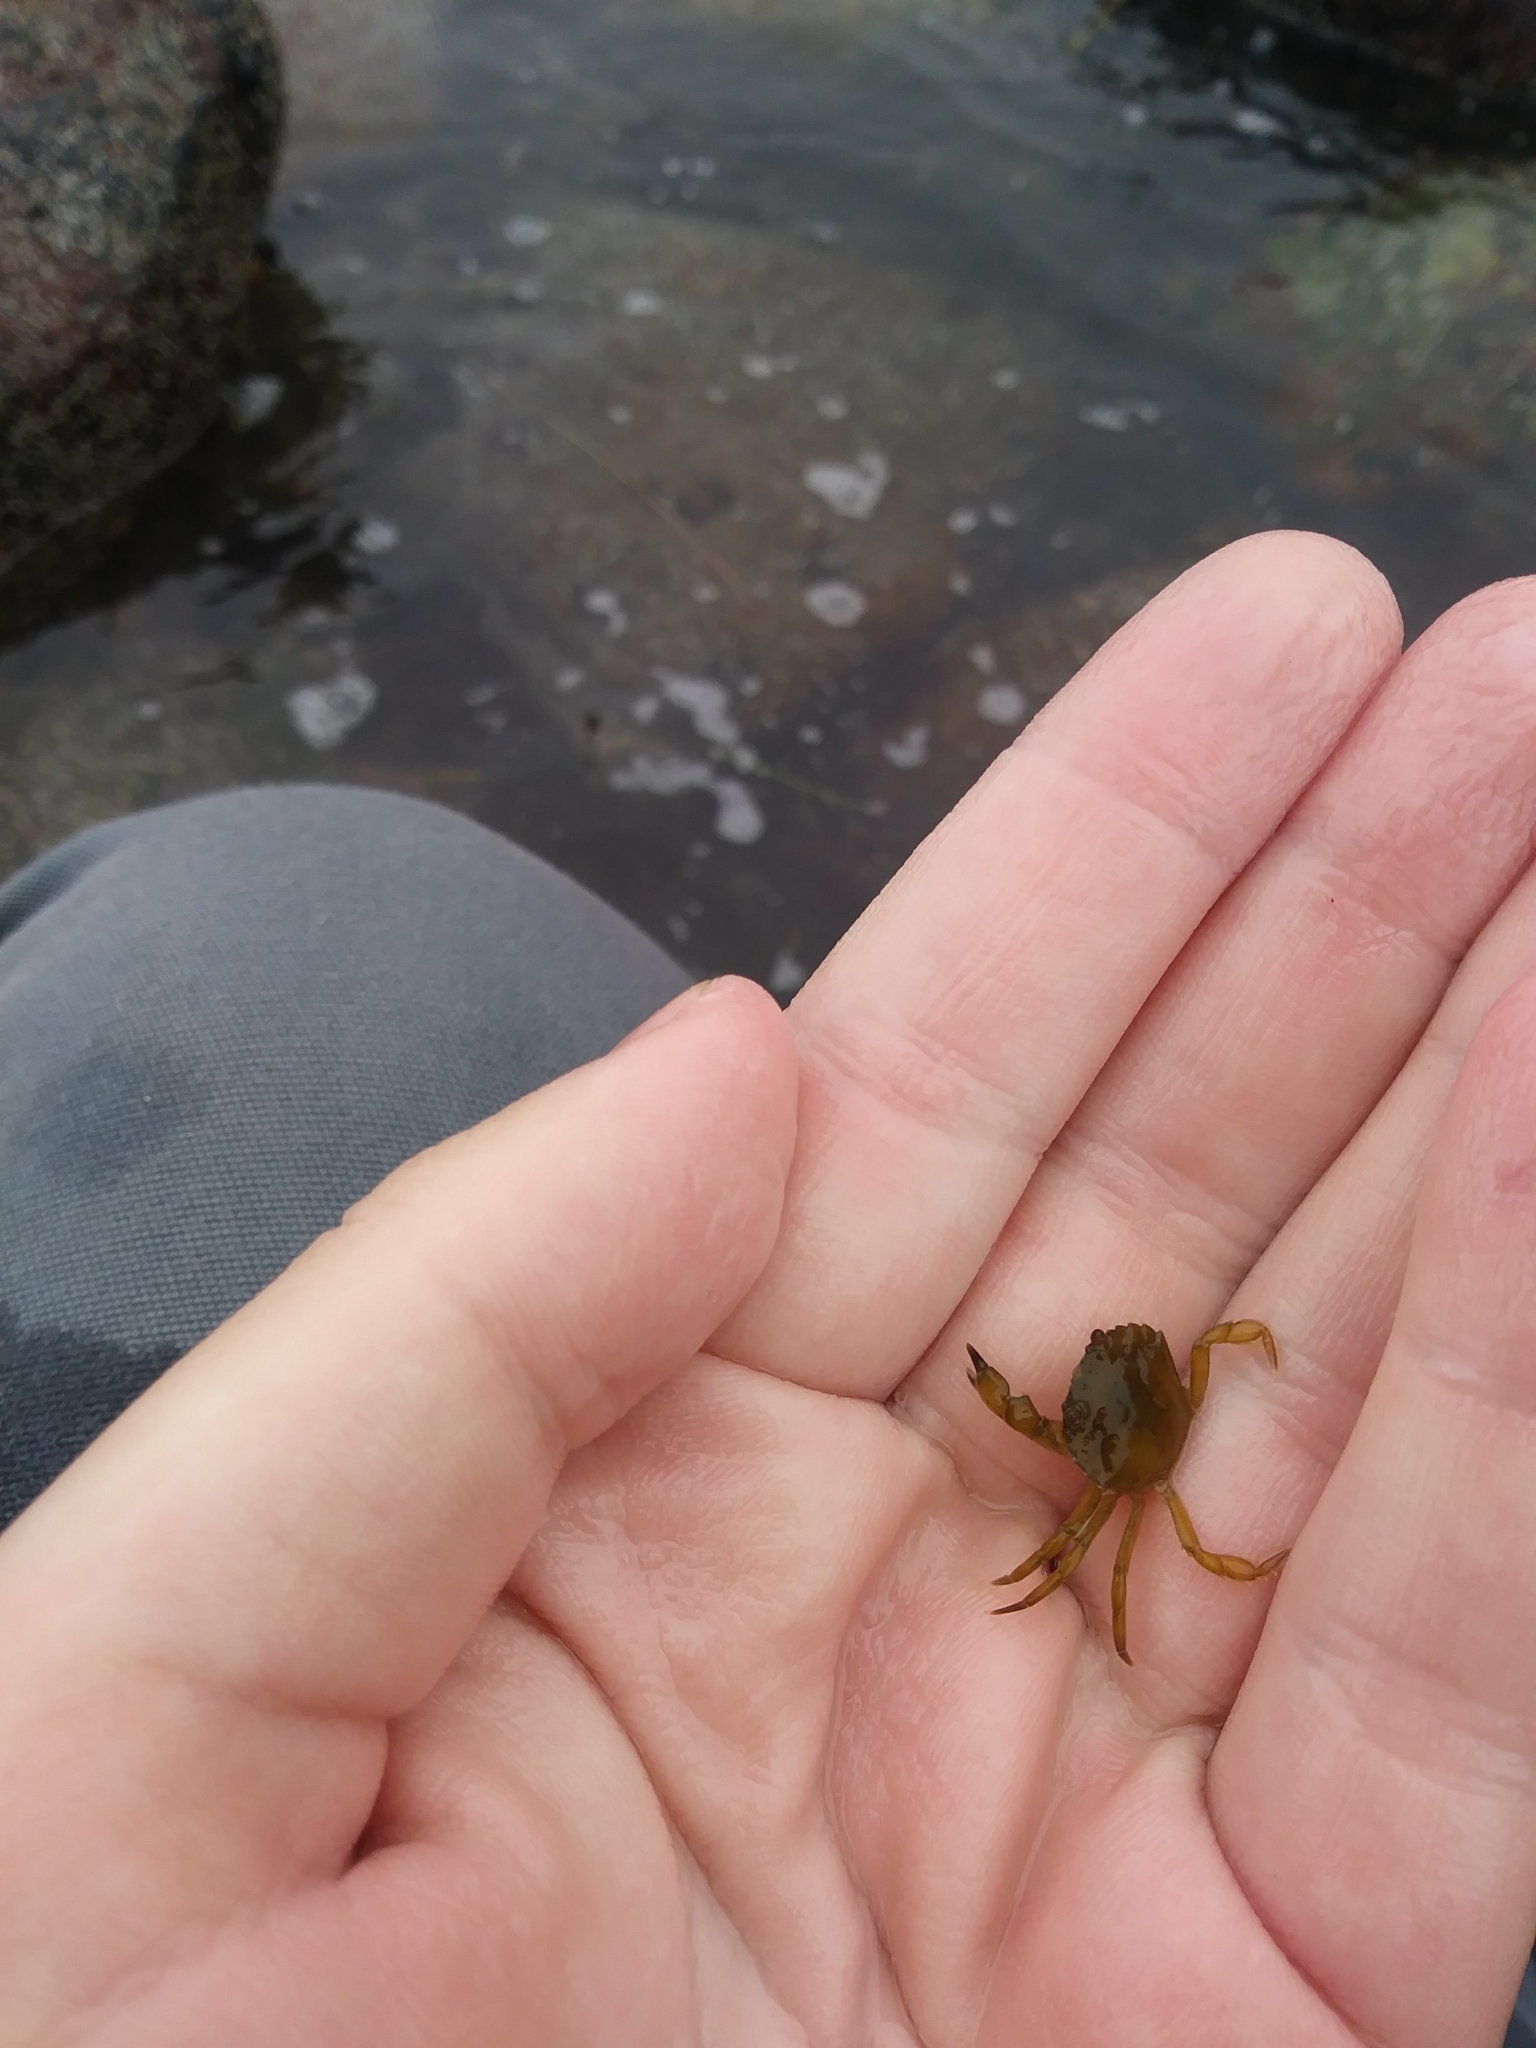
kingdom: Animalia
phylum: Arthropoda
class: Malacostraca
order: Decapoda
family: Carcinidae
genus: Carcinus
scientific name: Carcinus maenas
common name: European green crab
